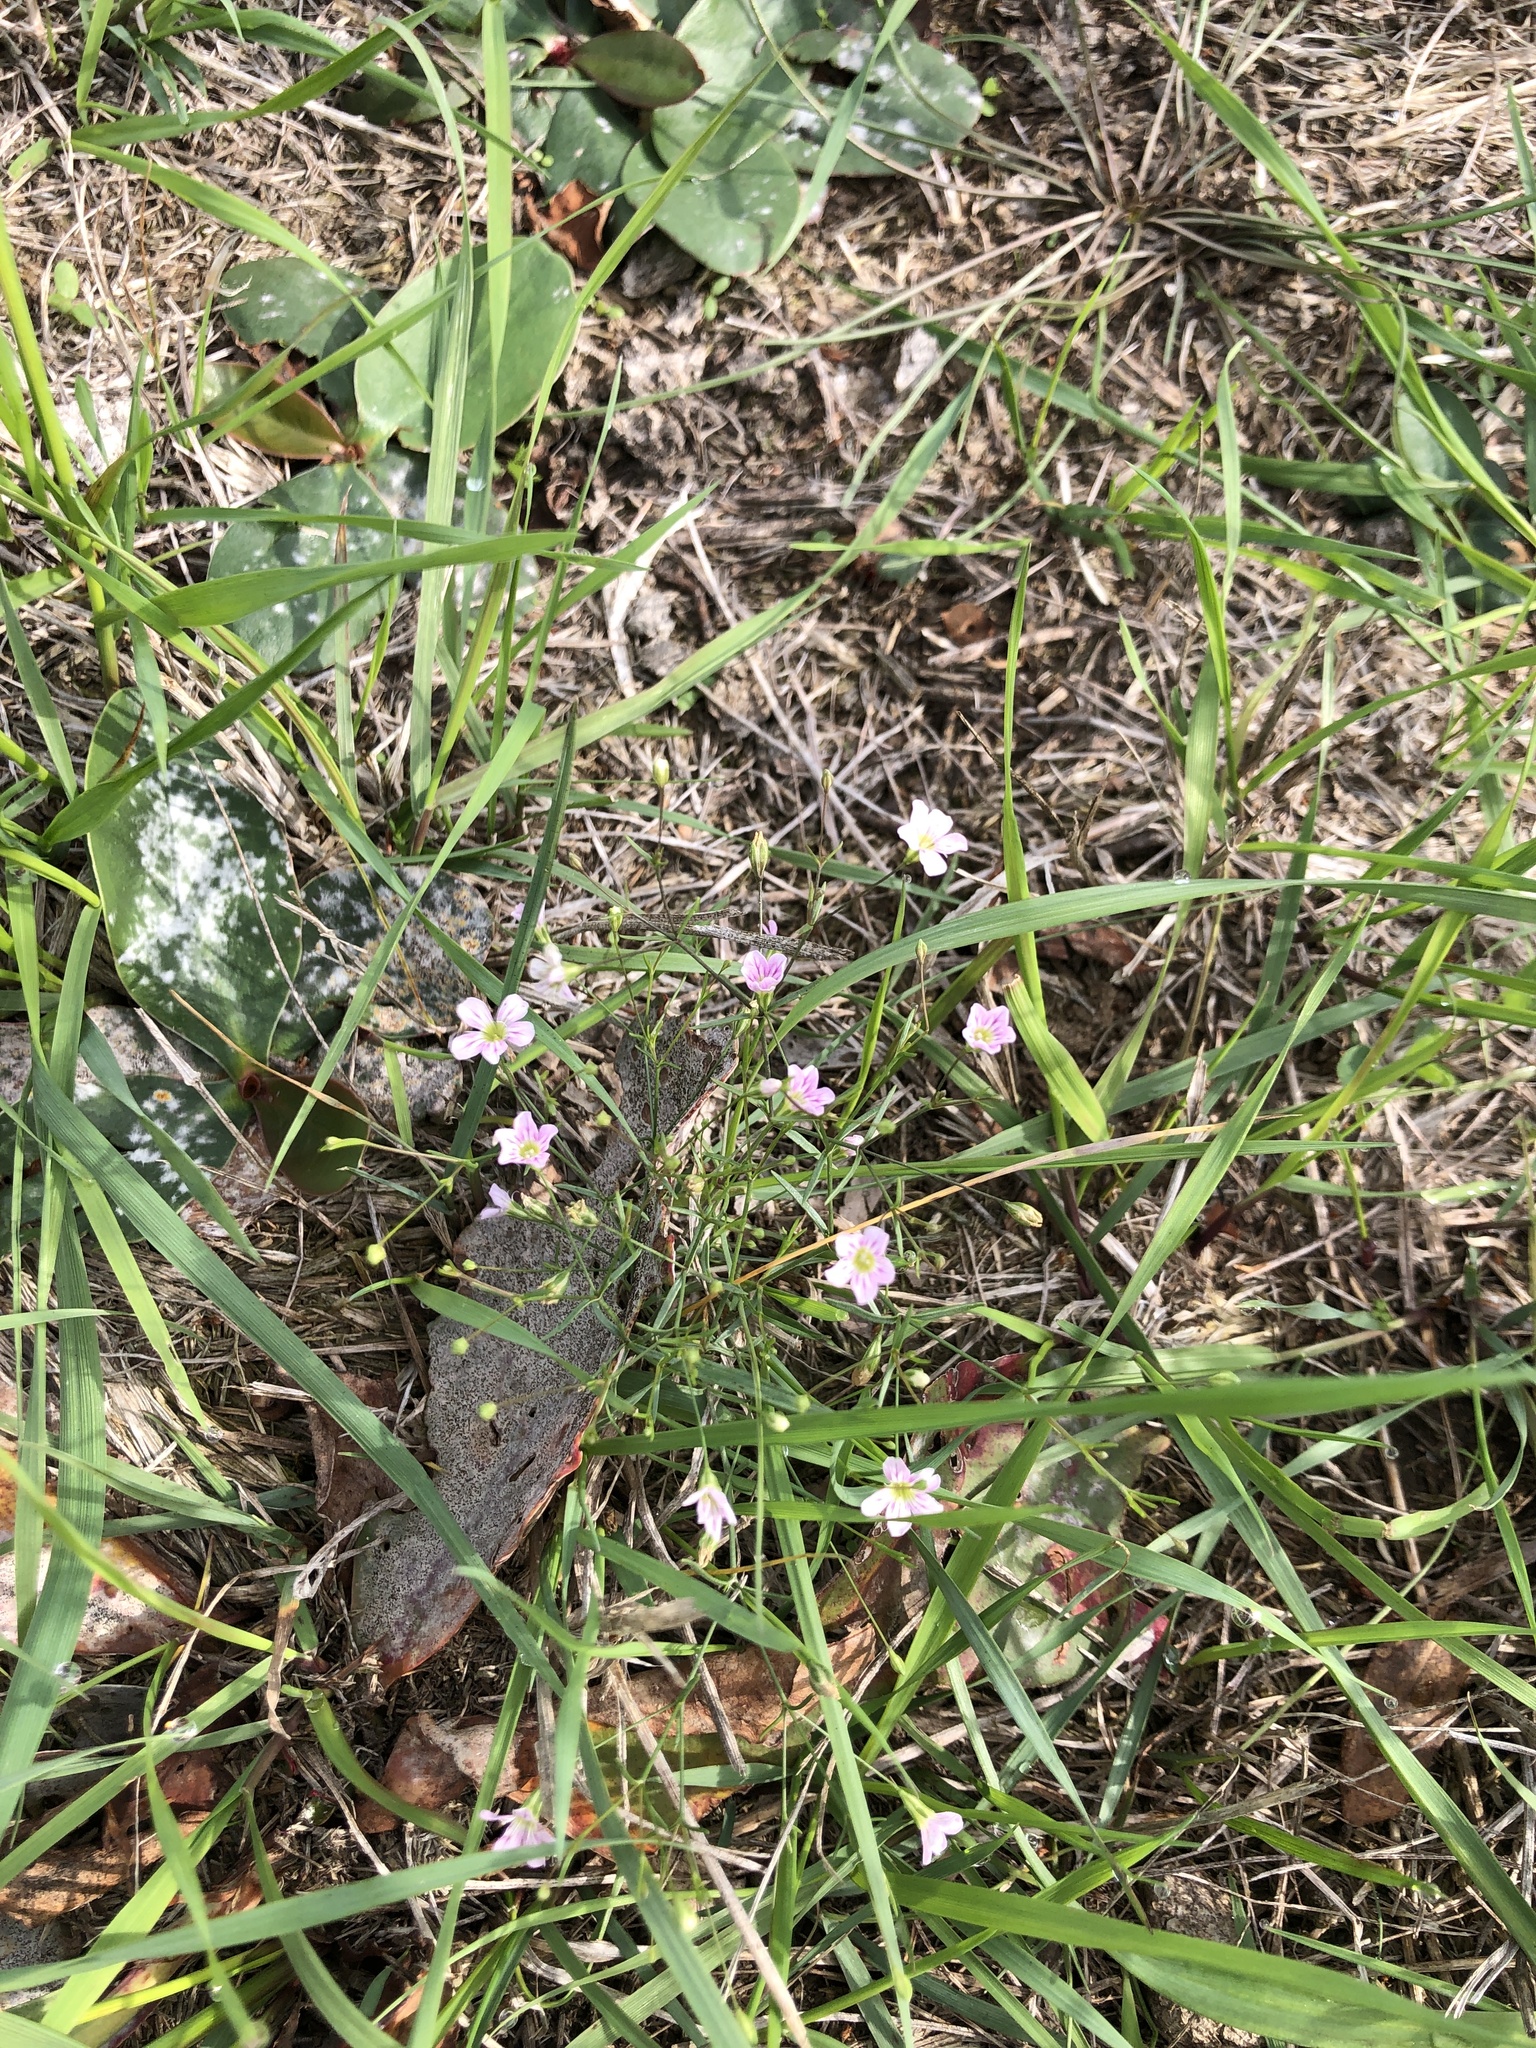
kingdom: Plantae
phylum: Tracheophyta
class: Magnoliopsida
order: Caryophyllales
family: Caryophyllaceae
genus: Psammophiliella
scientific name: Psammophiliella muralis
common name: Cushion baby's-breath
